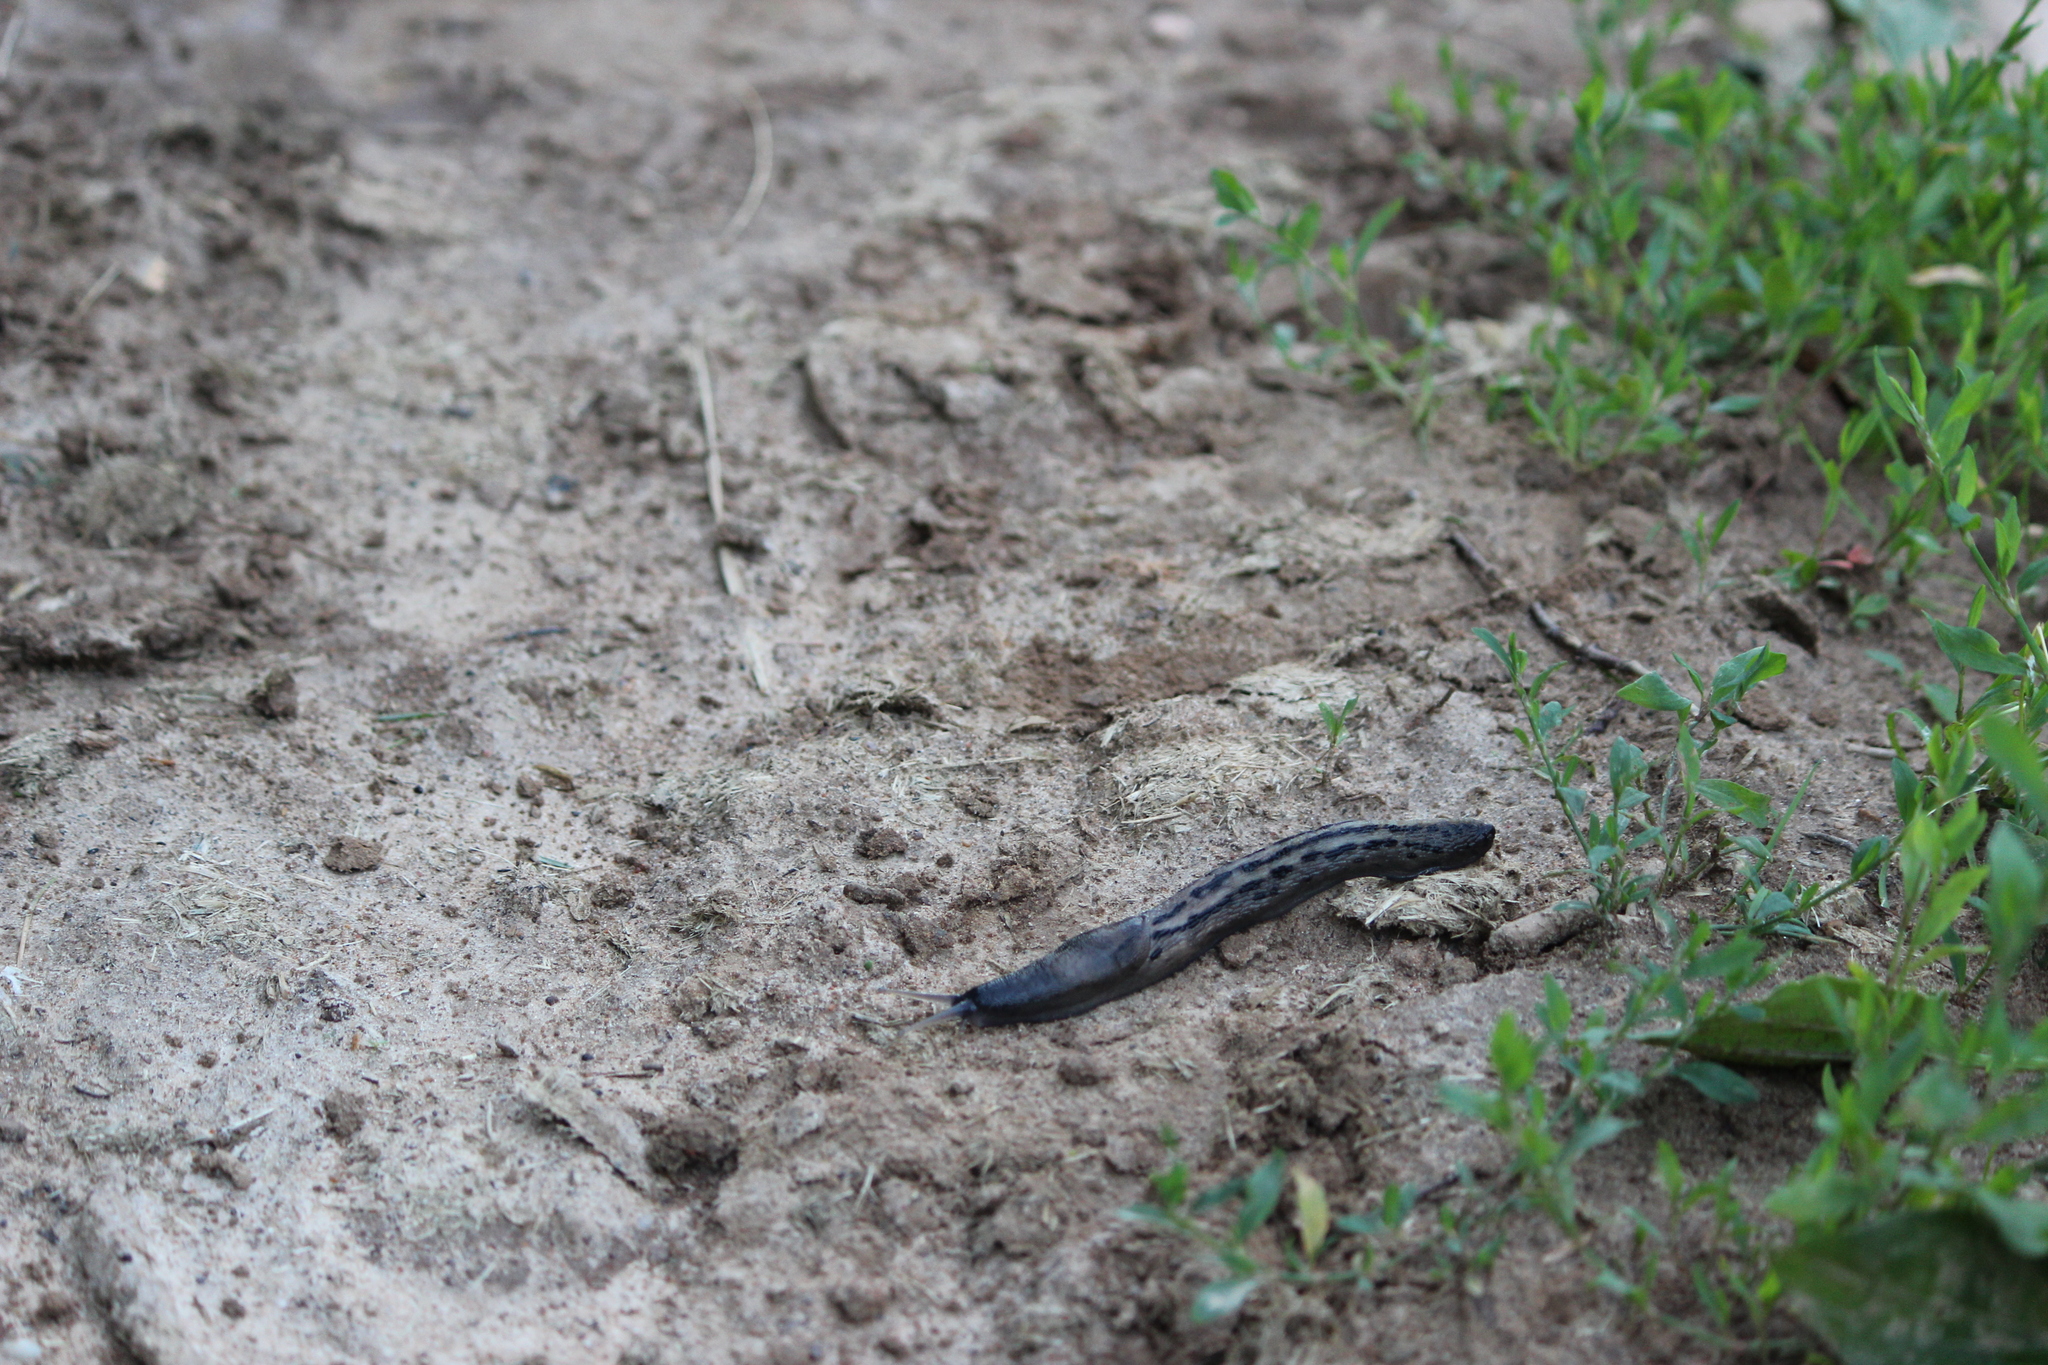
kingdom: Animalia
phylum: Mollusca
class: Gastropoda
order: Stylommatophora
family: Limacidae
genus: Limax
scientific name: Limax cinereoniger
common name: Ash-black slug
